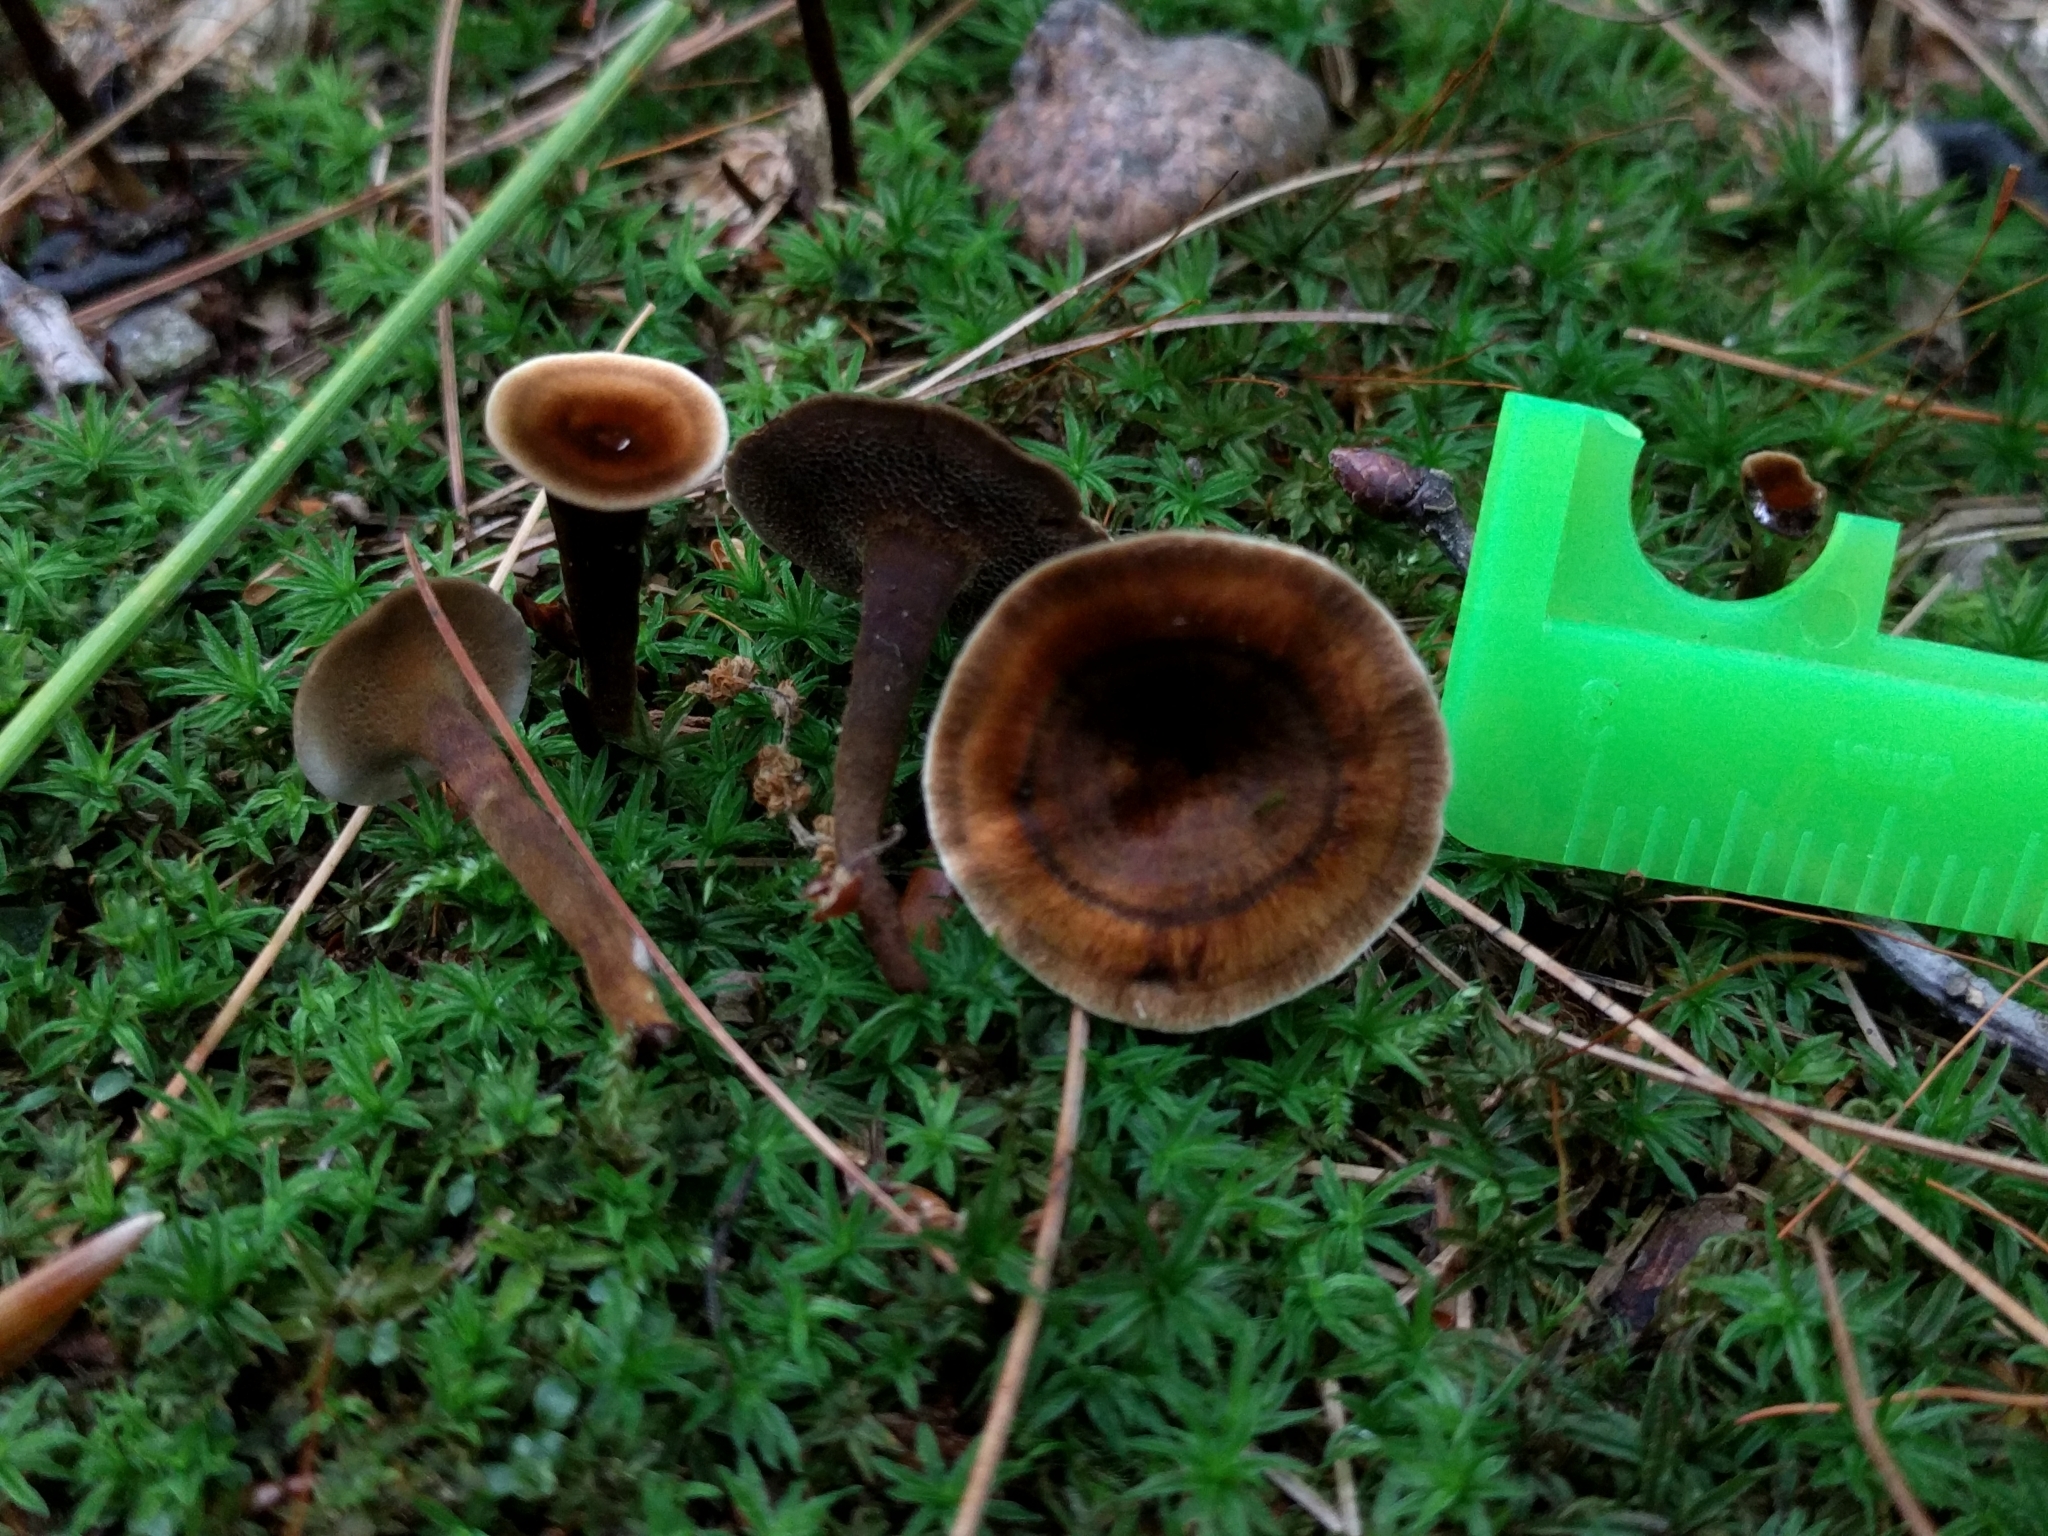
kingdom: Fungi
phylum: Basidiomycota
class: Agaricomycetes
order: Hymenochaetales
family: Hymenochaetaceae
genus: Coltricia
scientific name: Coltricia cinnamomea
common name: Shiny cinnamon polypore
